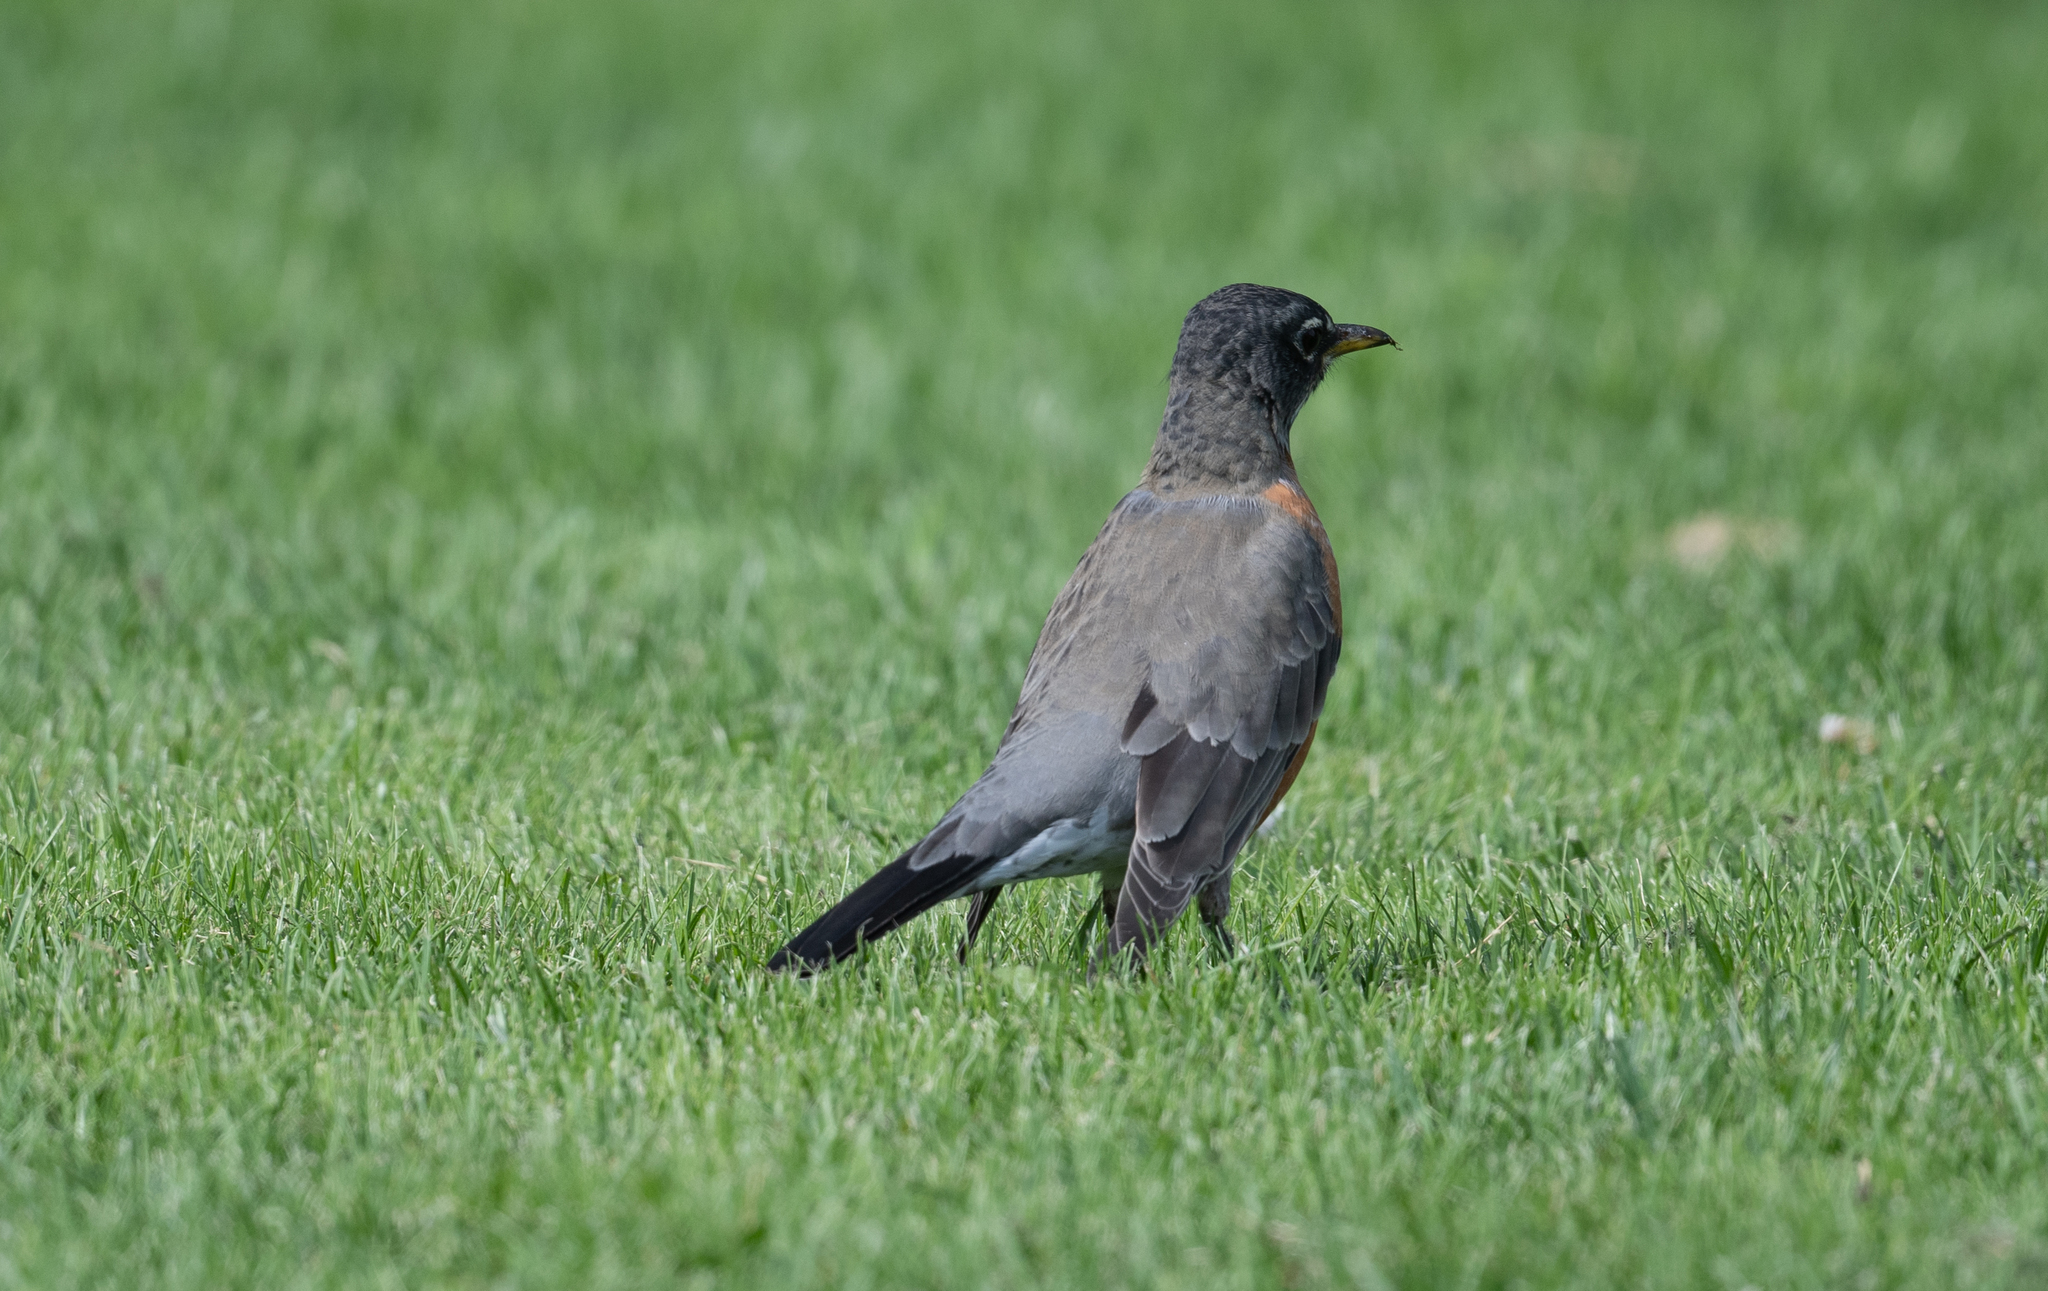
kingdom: Animalia
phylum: Chordata
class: Aves
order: Passeriformes
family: Turdidae
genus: Turdus
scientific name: Turdus migratorius
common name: American robin
